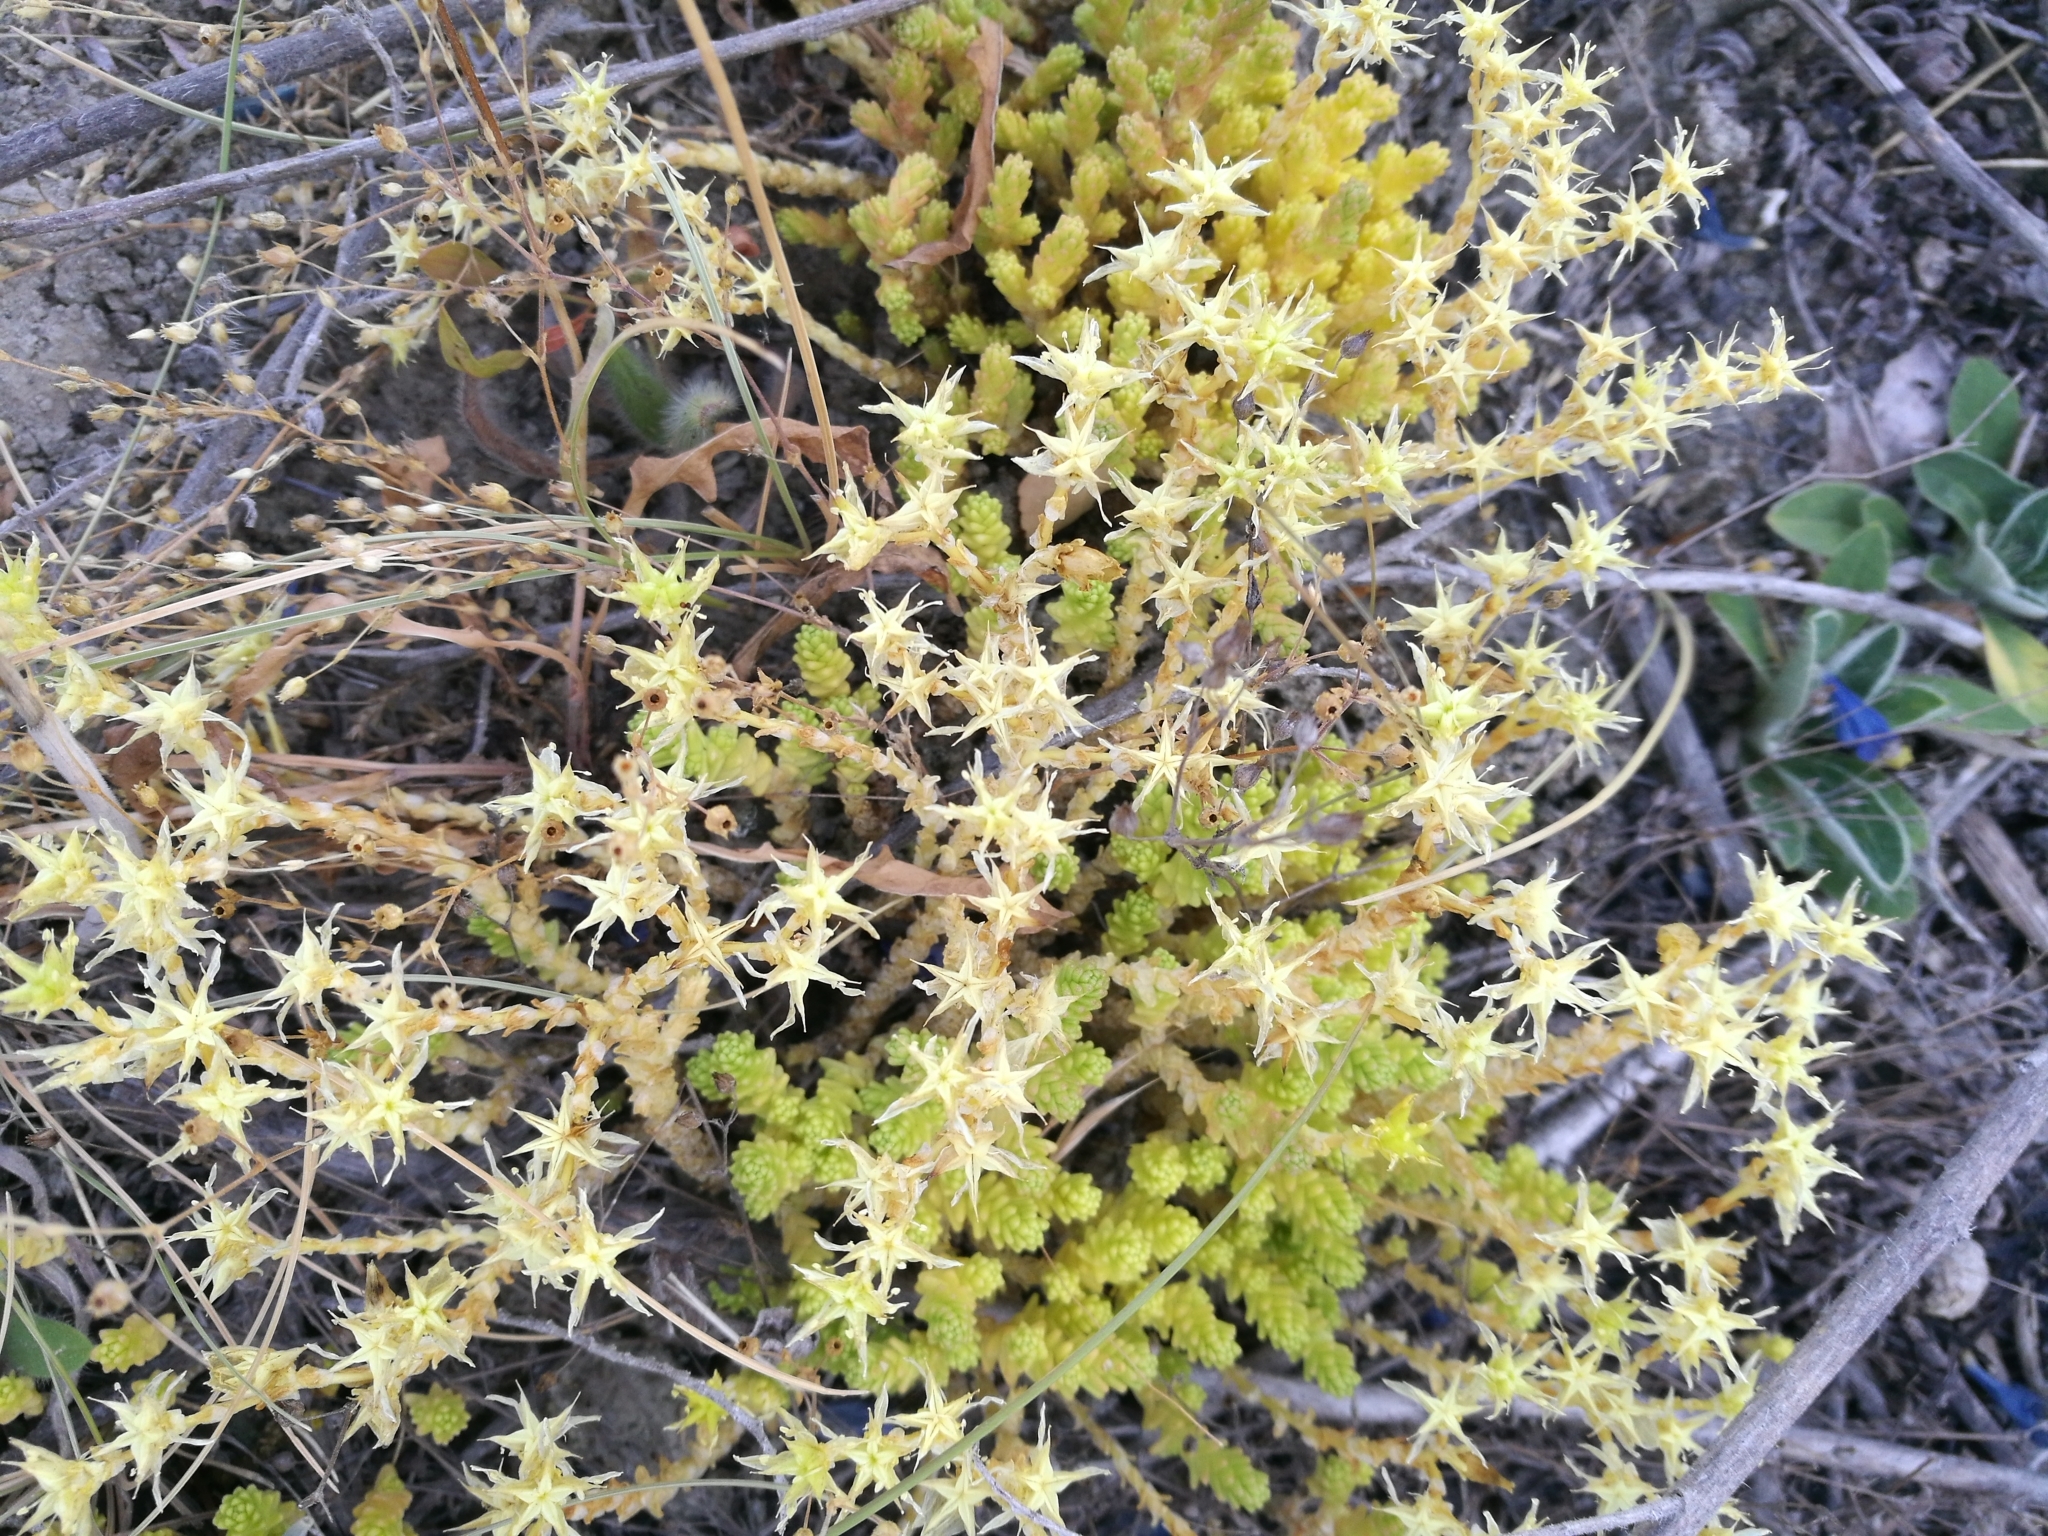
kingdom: Plantae
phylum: Tracheophyta
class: Magnoliopsida
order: Saxifragales
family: Crassulaceae
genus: Sedum
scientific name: Sedum acre
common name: Biting stonecrop
